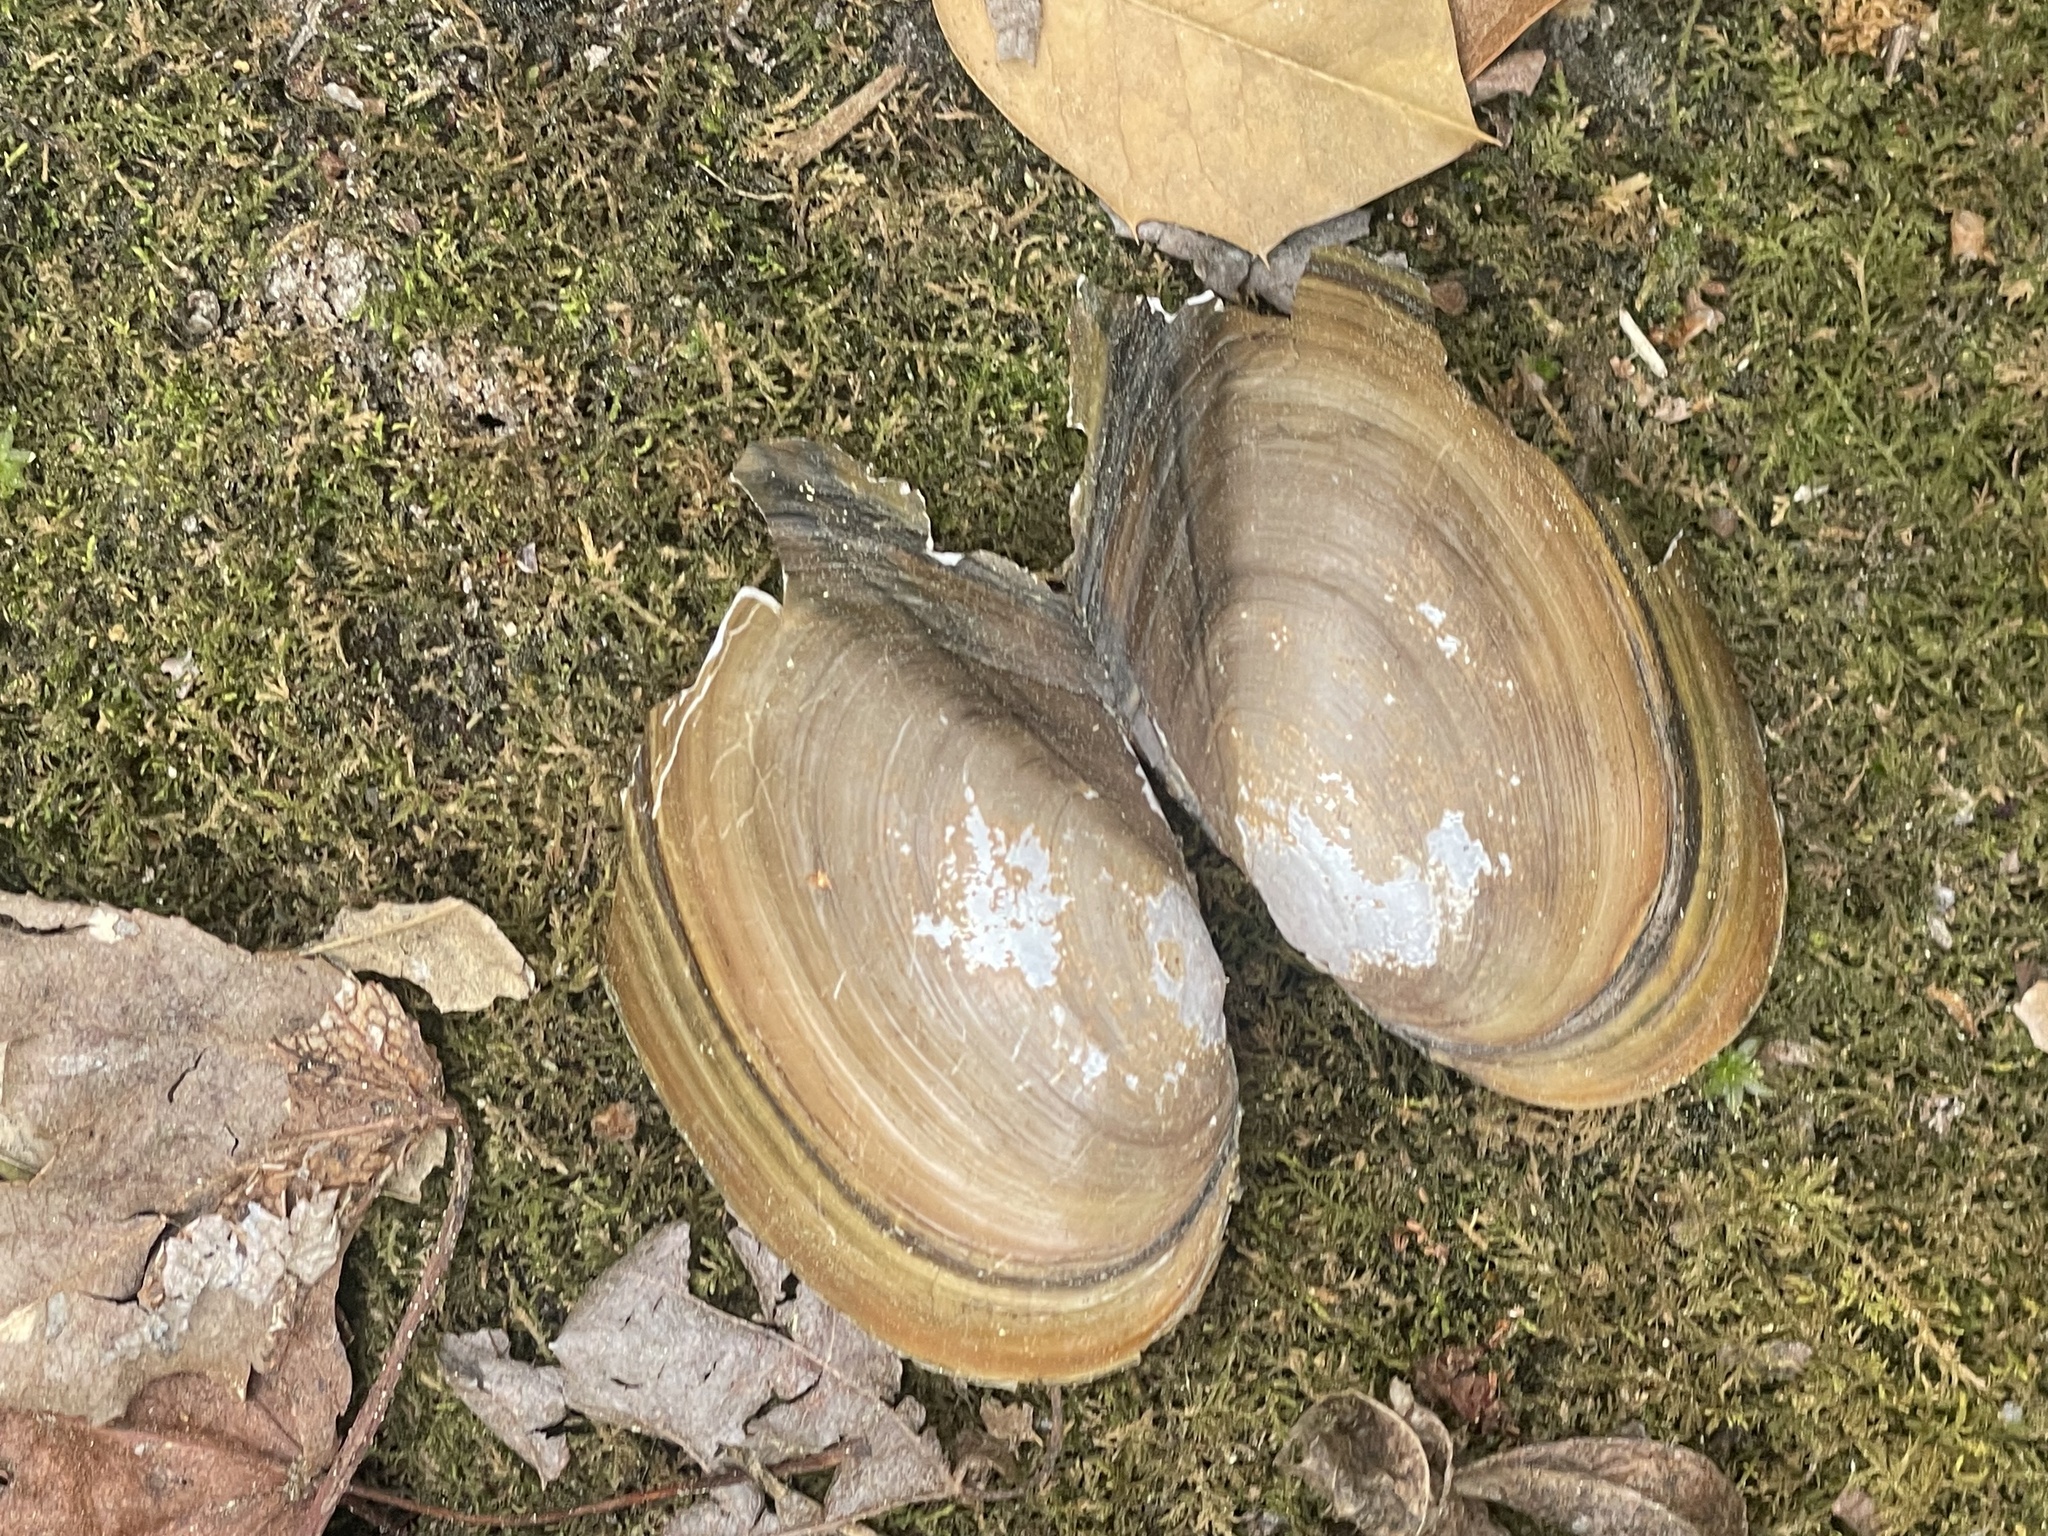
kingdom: Animalia
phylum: Mollusca
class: Bivalvia
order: Unionida
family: Unionidae
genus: Pyganodon
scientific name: Pyganodon cataracta
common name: Eastern floater
